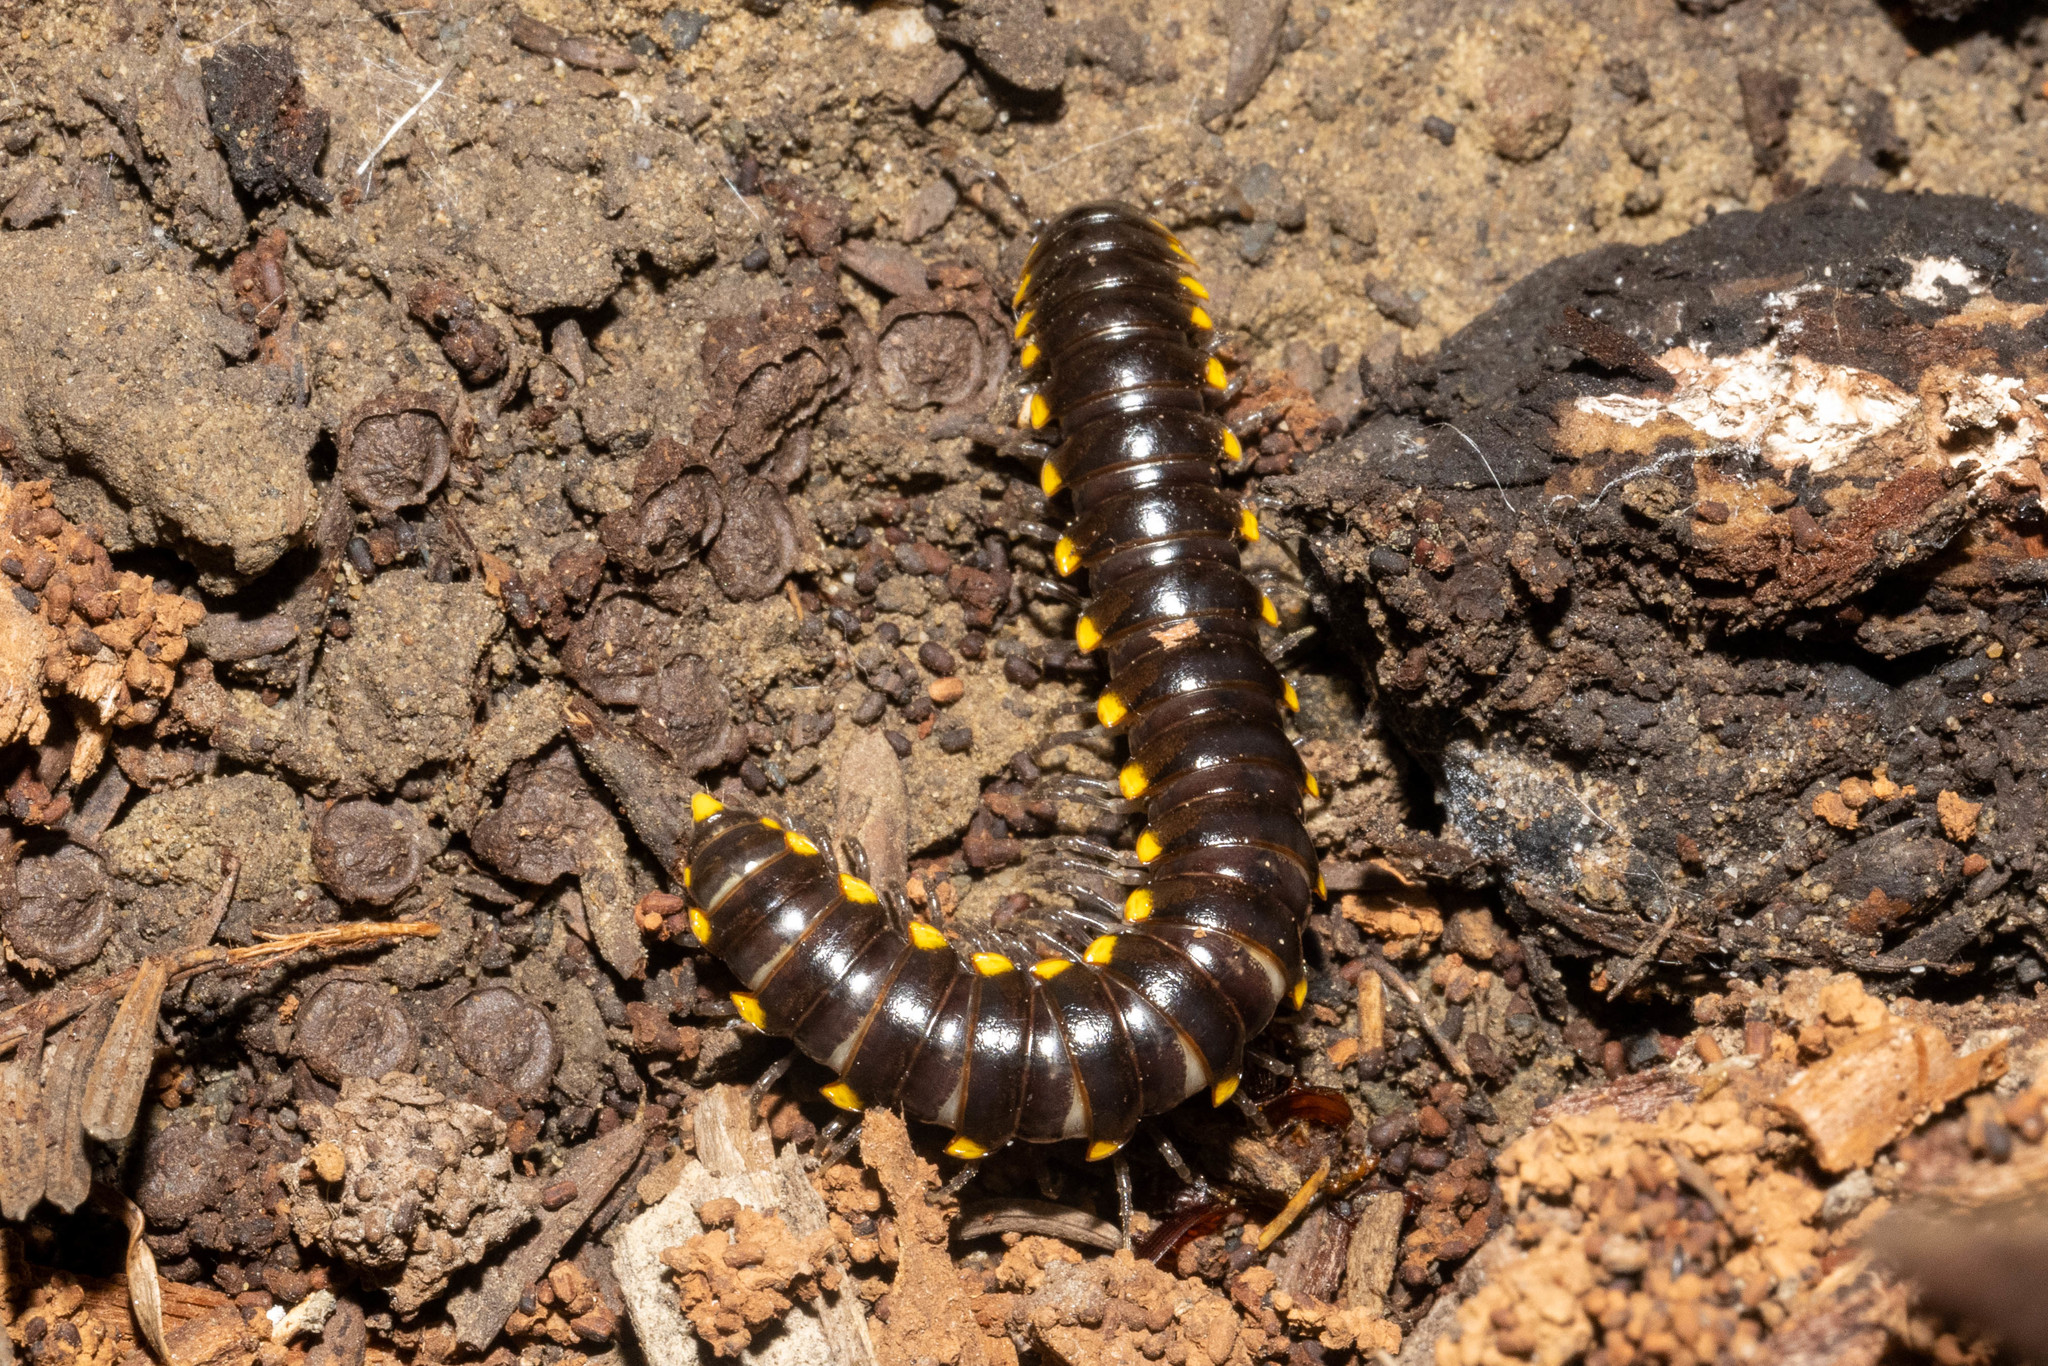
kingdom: Animalia
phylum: Arthropoda
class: Diplopoda
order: Polydesmida
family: Xystodesmidae
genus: Harpaphe
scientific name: Harpaphe haydeniana
